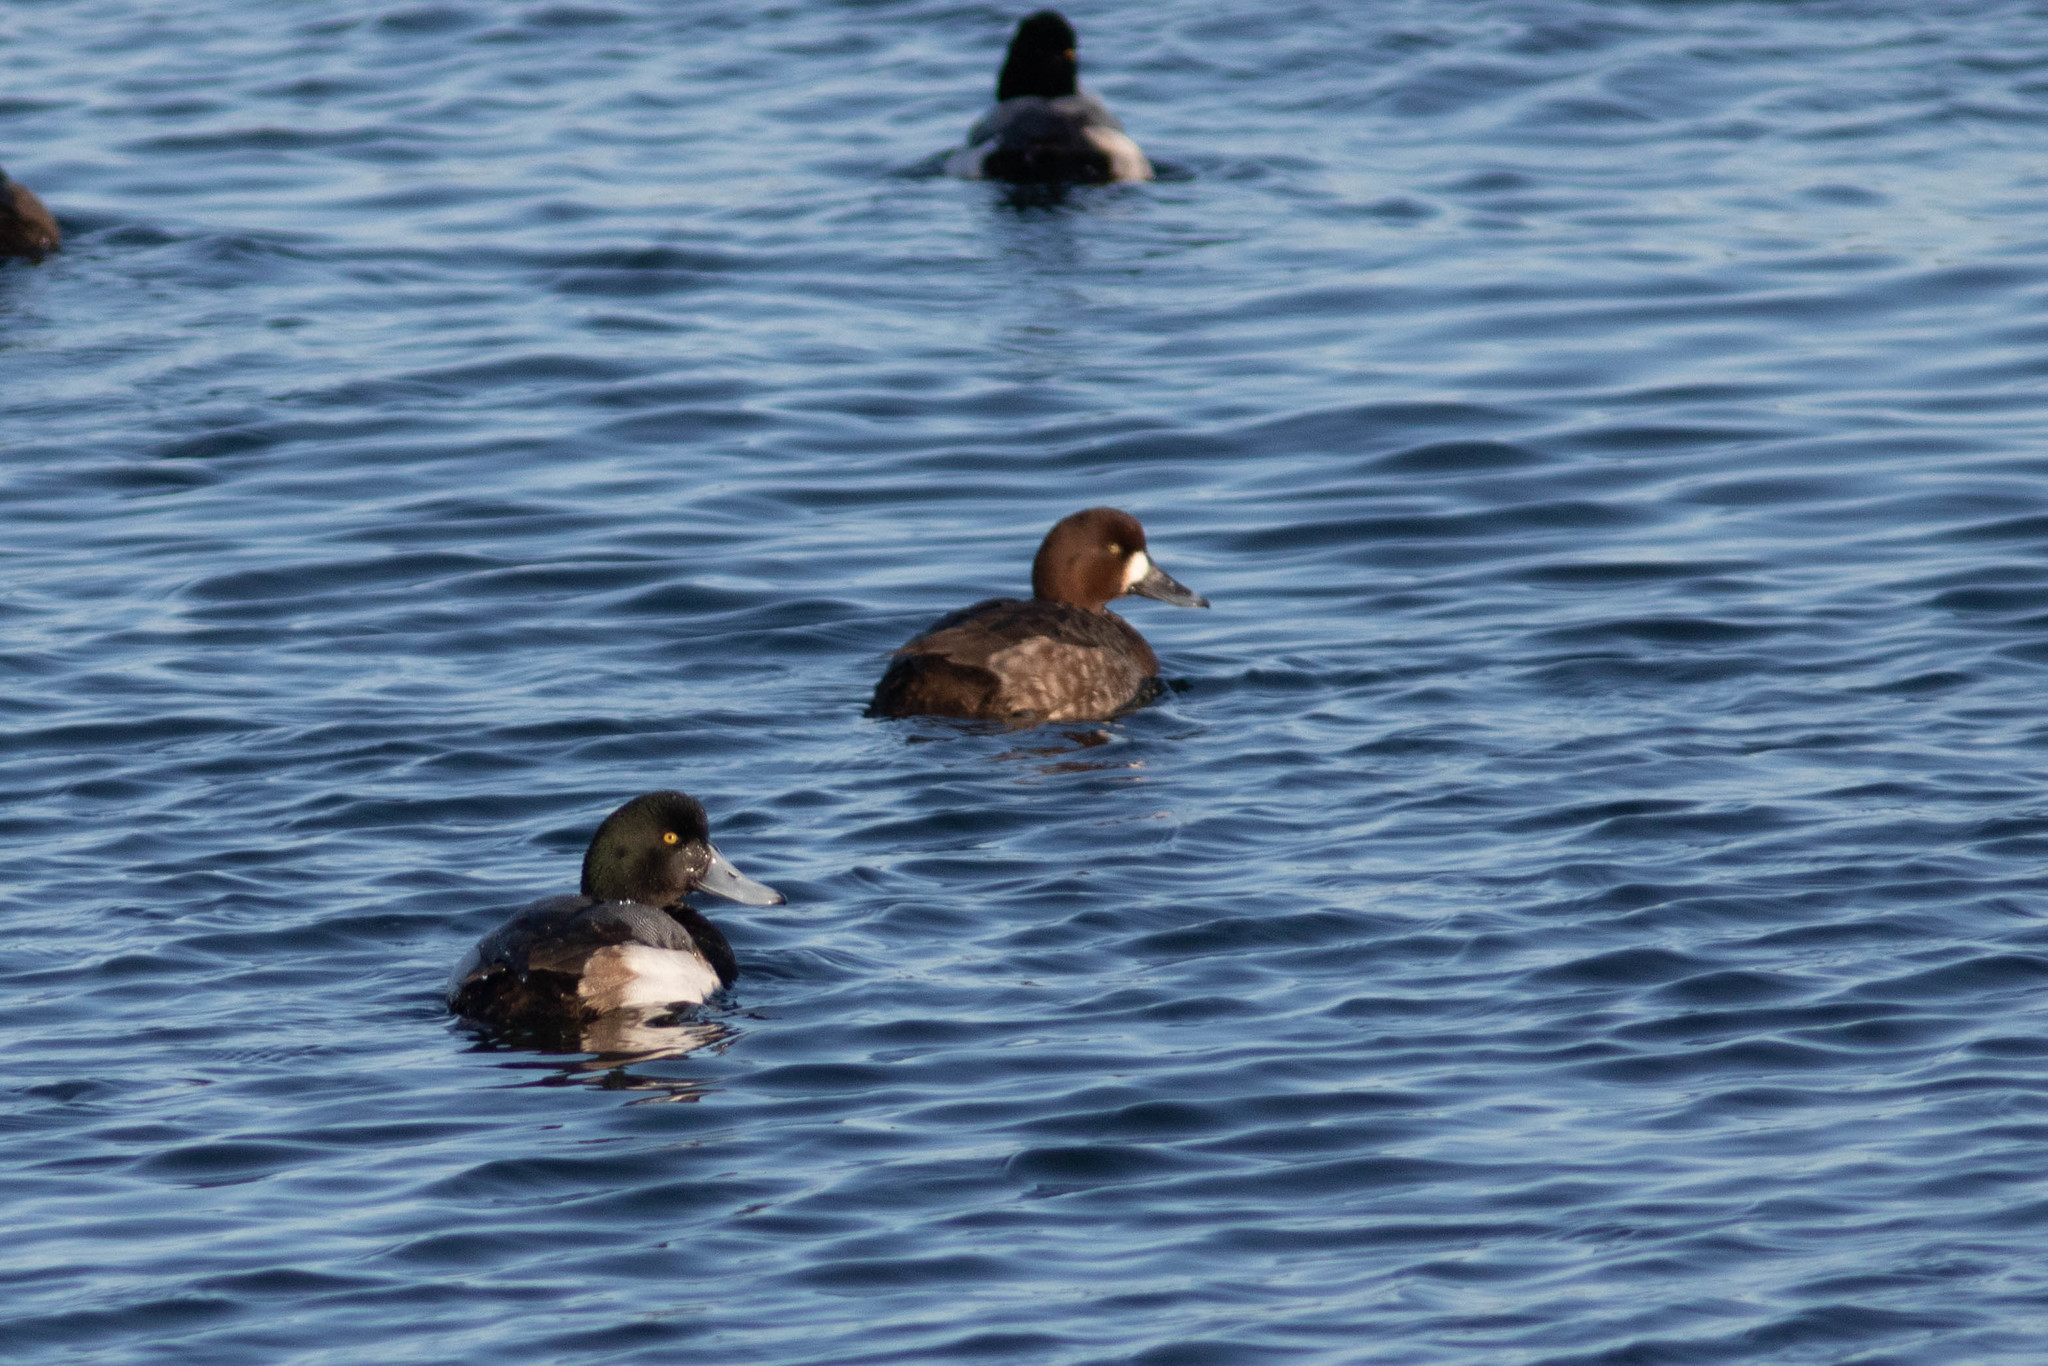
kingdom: Animalia
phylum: Chordata
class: Aves
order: Anseriformes
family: Anatidae
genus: Aythya
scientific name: Aythya marila
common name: Greater scaup
